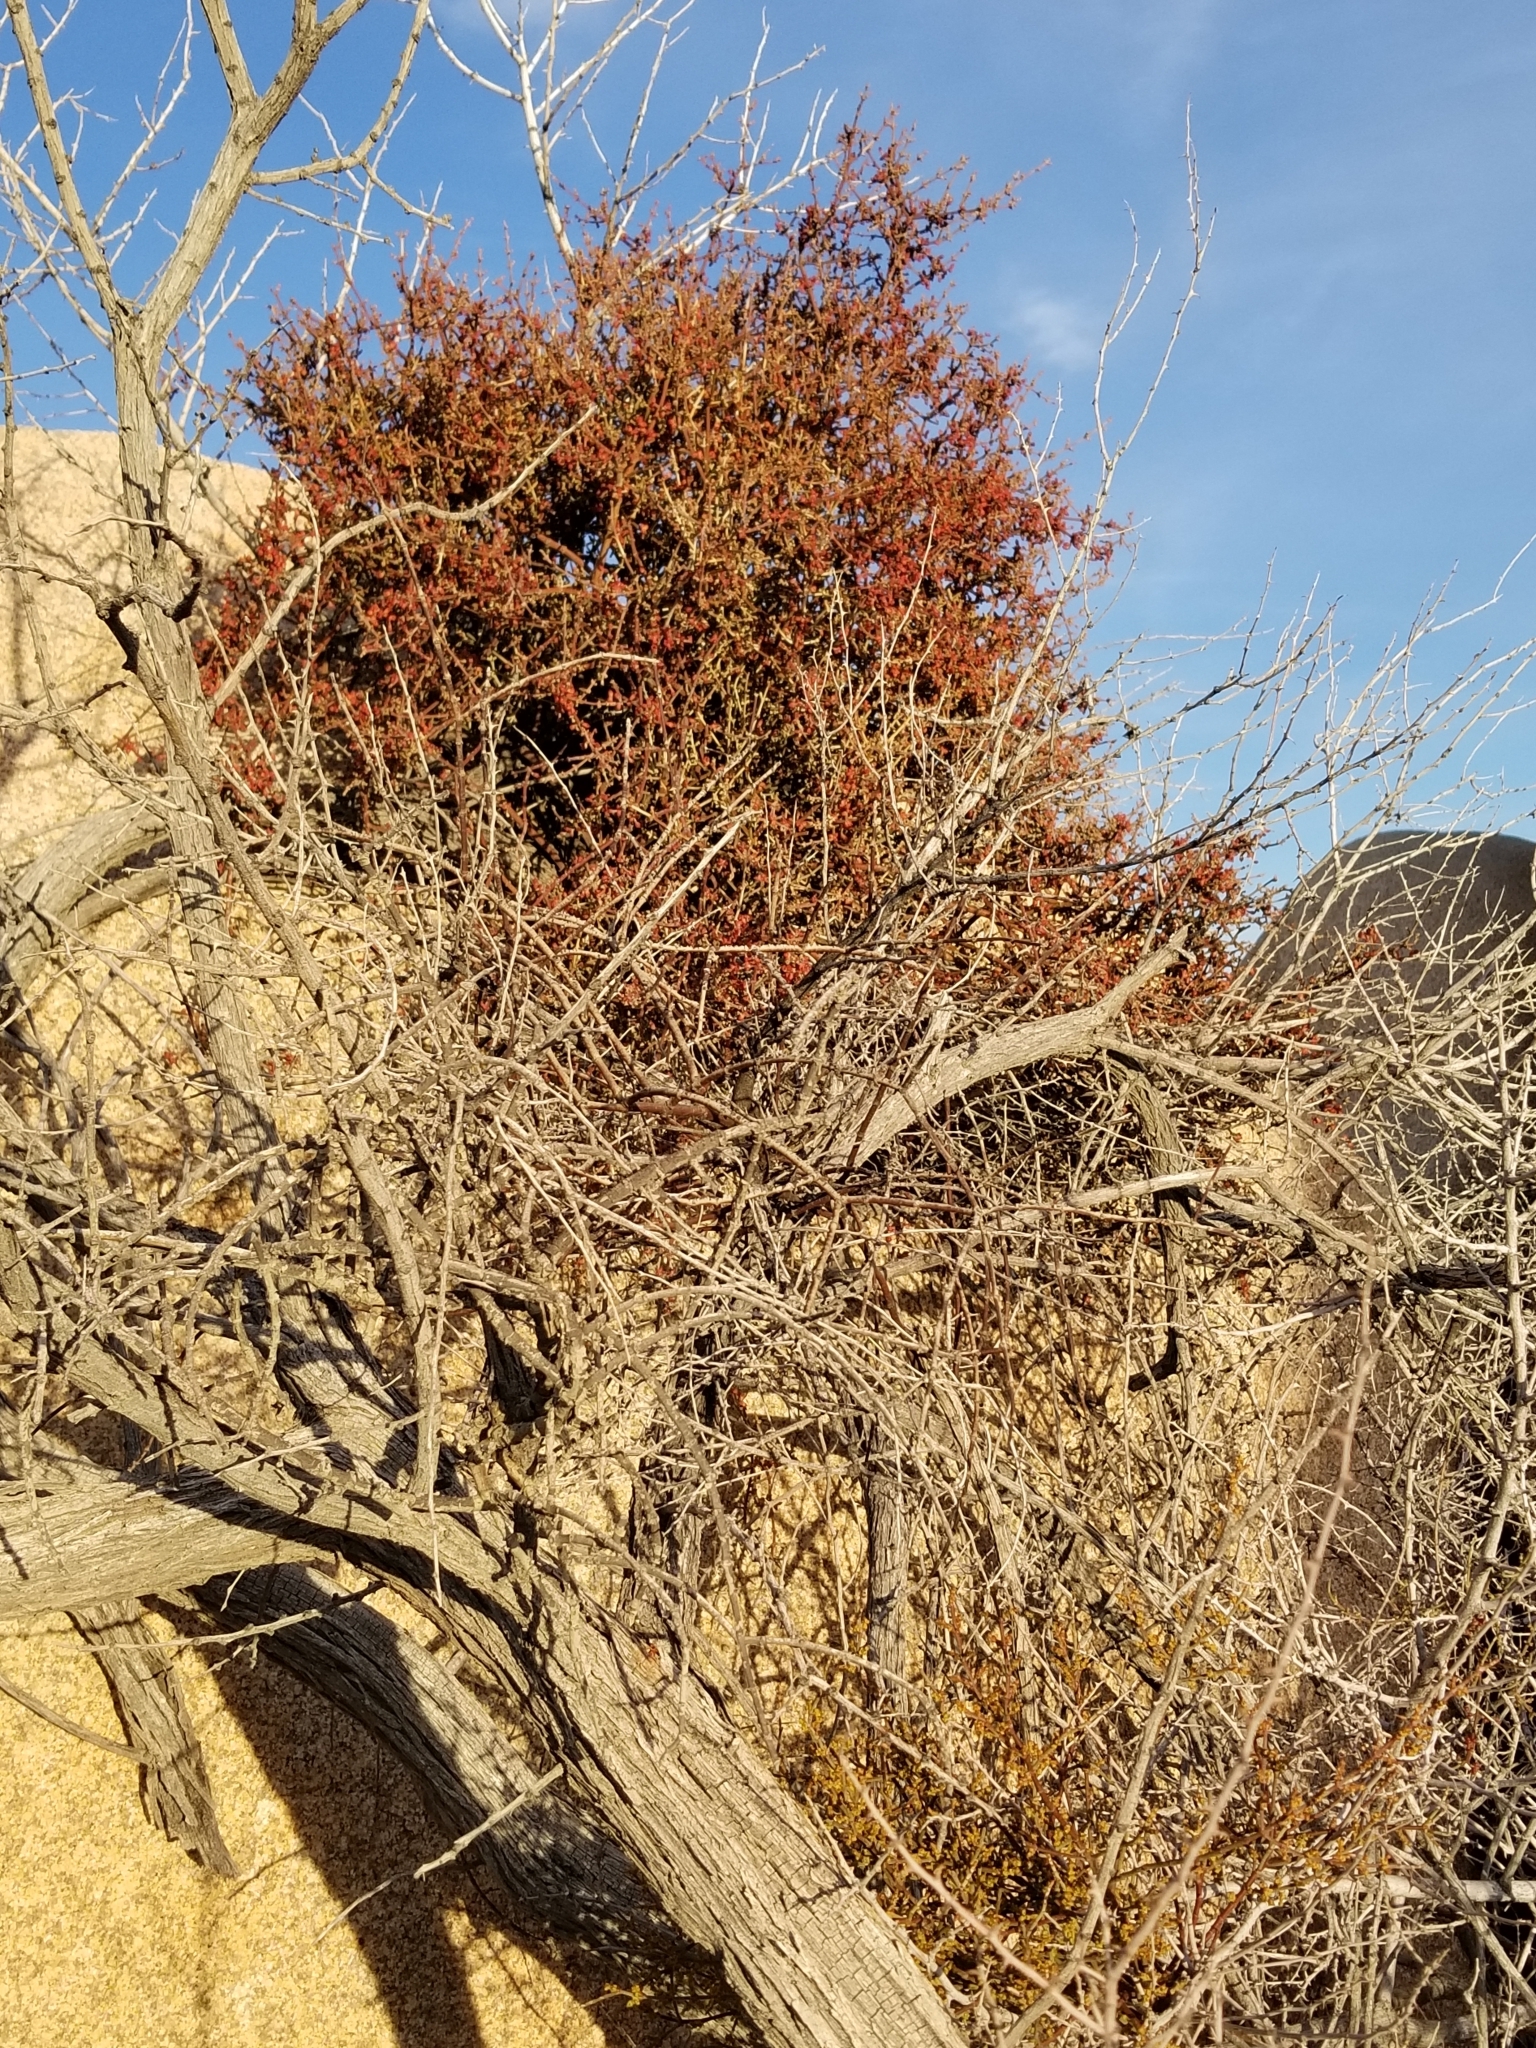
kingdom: Plantae
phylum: Tracheophyta
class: Magnoliopsida
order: Santalales
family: Viscaceae
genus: Phoradendron
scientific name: Phoradendron californicum
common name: Acacia mistletoe
